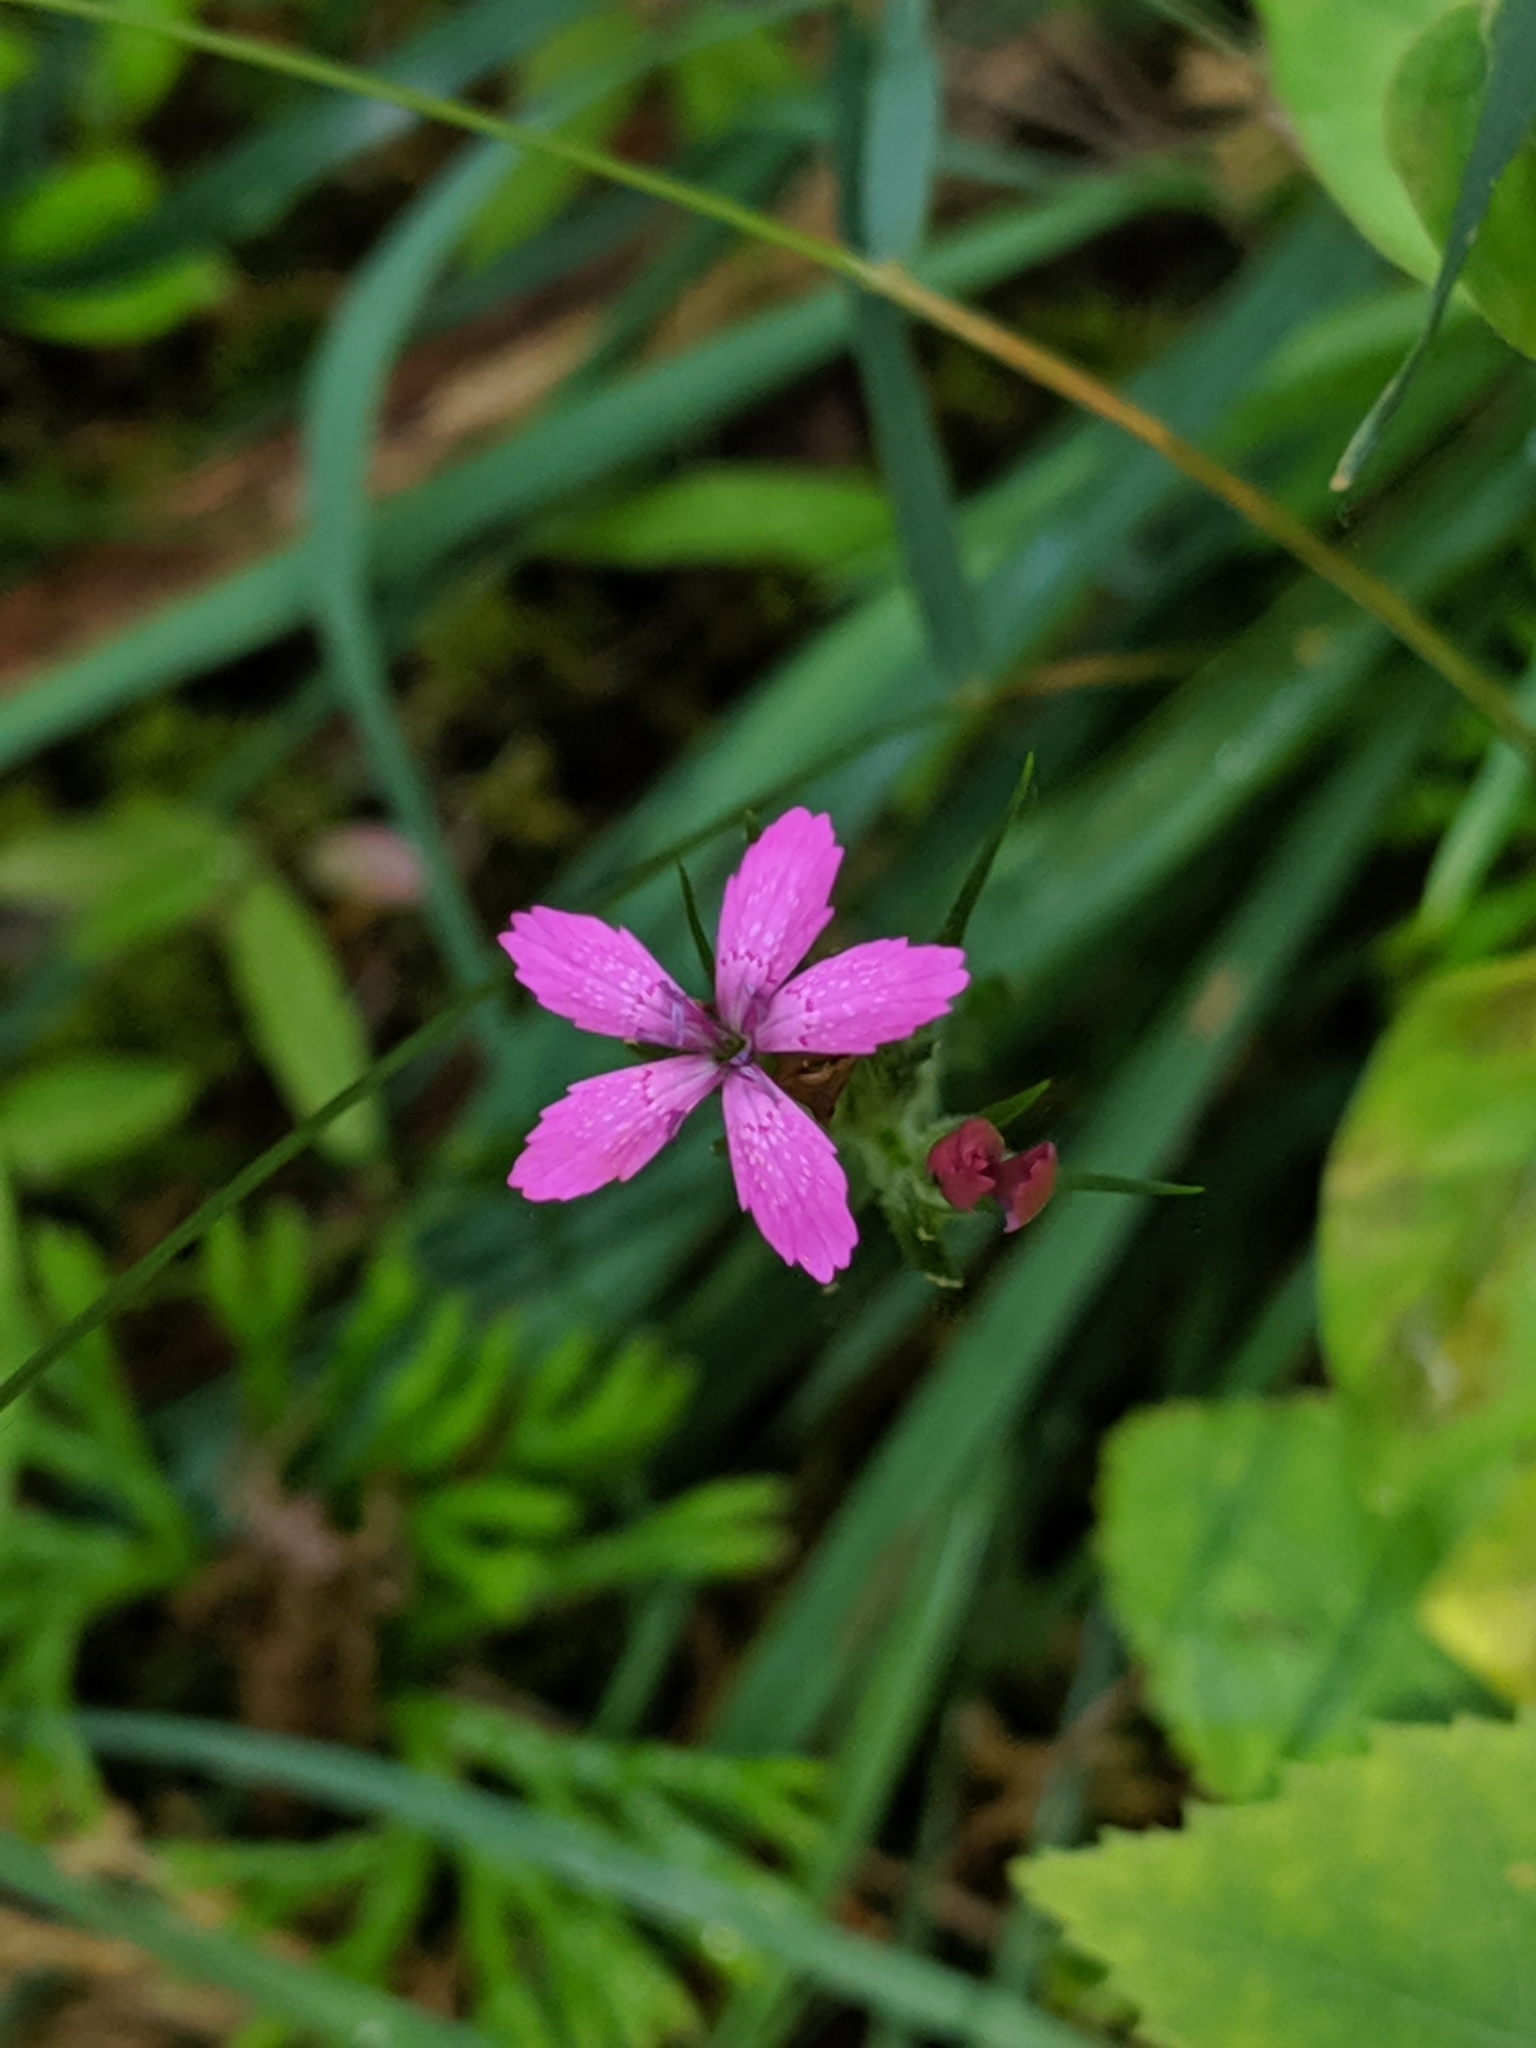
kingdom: Plantae
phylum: Tracheophyta
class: Magnoliopsida
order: Caryophyllales
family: Caryophyllaceae
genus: Dianthus
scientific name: Dianthus armeria
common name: Deptford pink
